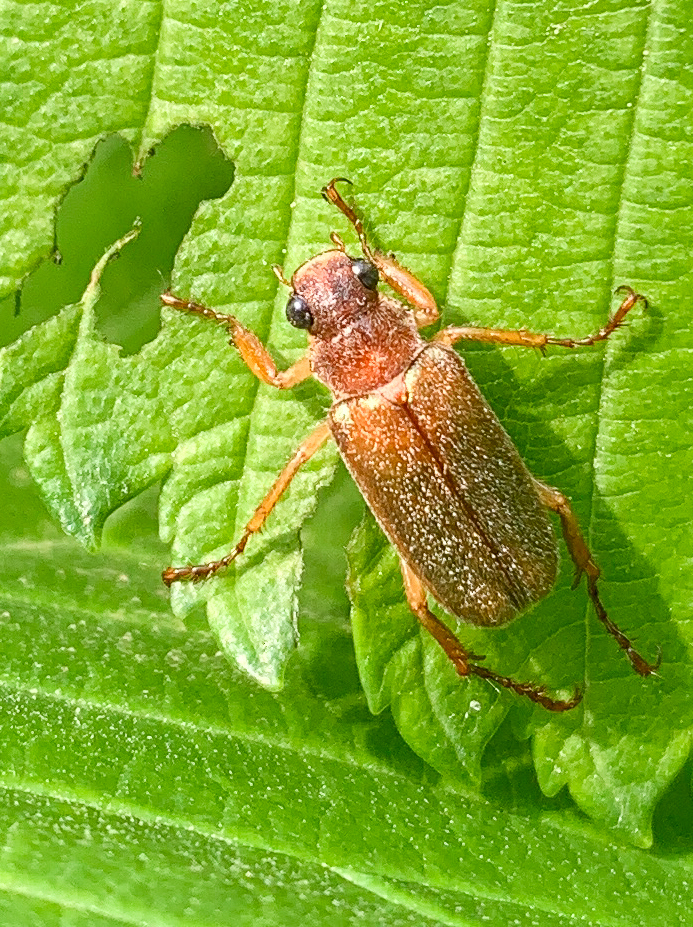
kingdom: Animalia
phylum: Arthropoda
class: Insecta
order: Coleoptera
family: Scarabaeidae
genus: Dichelonyx
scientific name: Dichelonyx linearis
